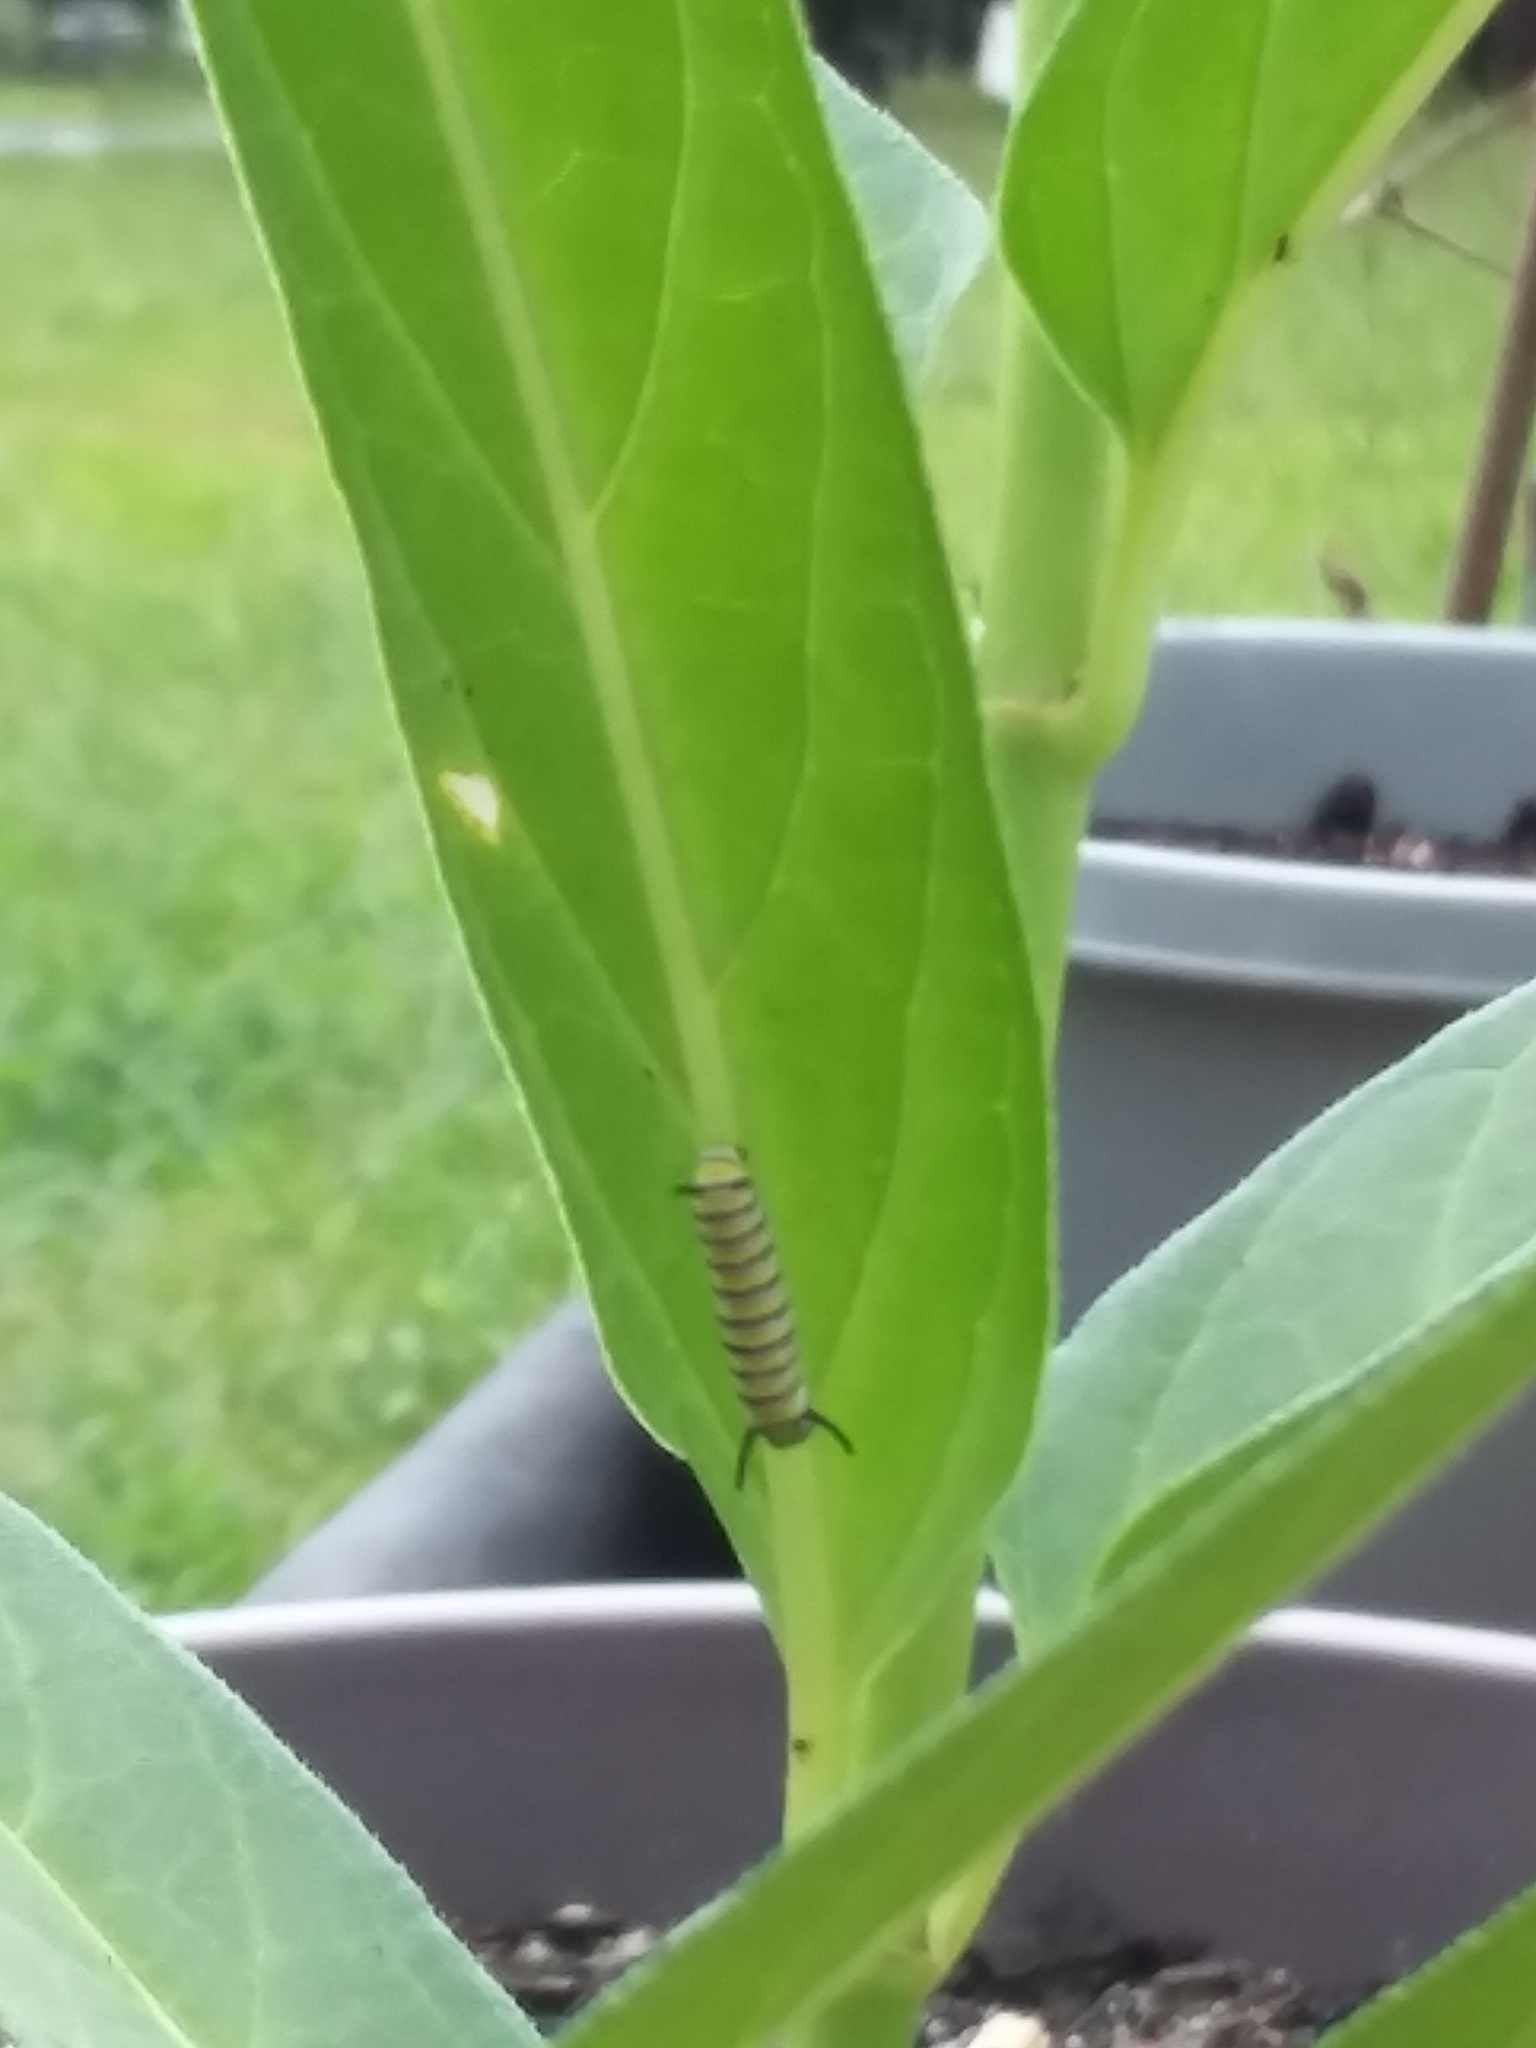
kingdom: Animalia
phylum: Arthropoda
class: Insecta
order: Lepidoptera
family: Nymphalidae
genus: Danaus
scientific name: Danaus plexippus
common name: Monarch
